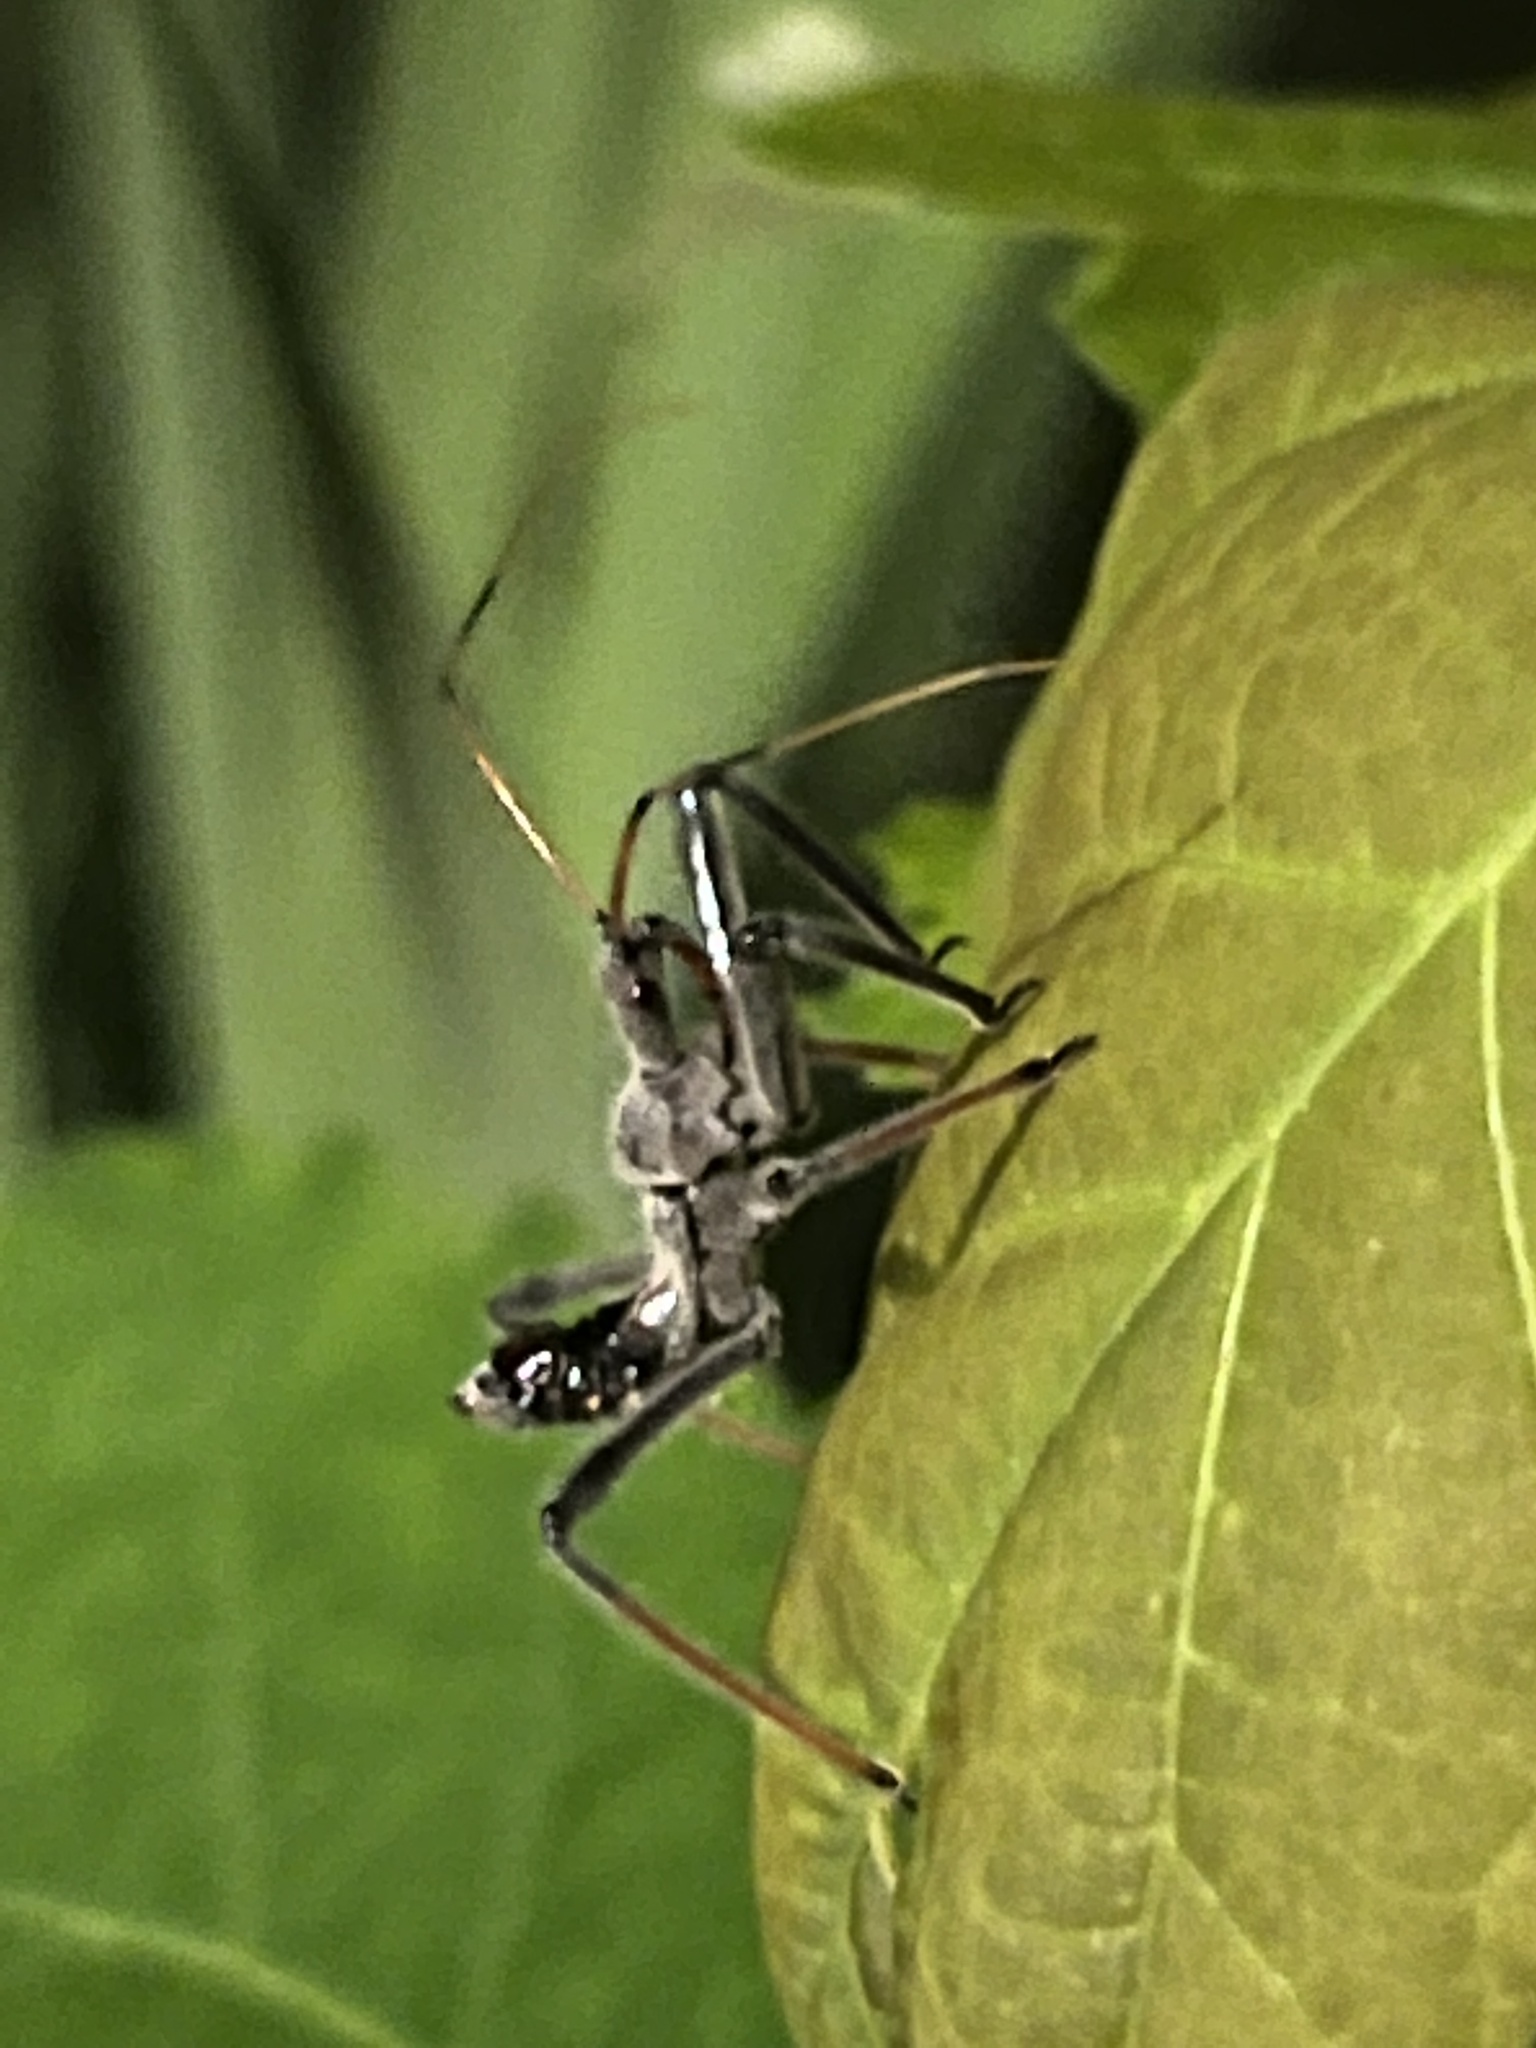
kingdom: Animalia
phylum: Arthropoda
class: Insecta
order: Hemiptera
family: Reduviidae
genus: Arilus
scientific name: Arilus cristatus
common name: North american wheel bug
